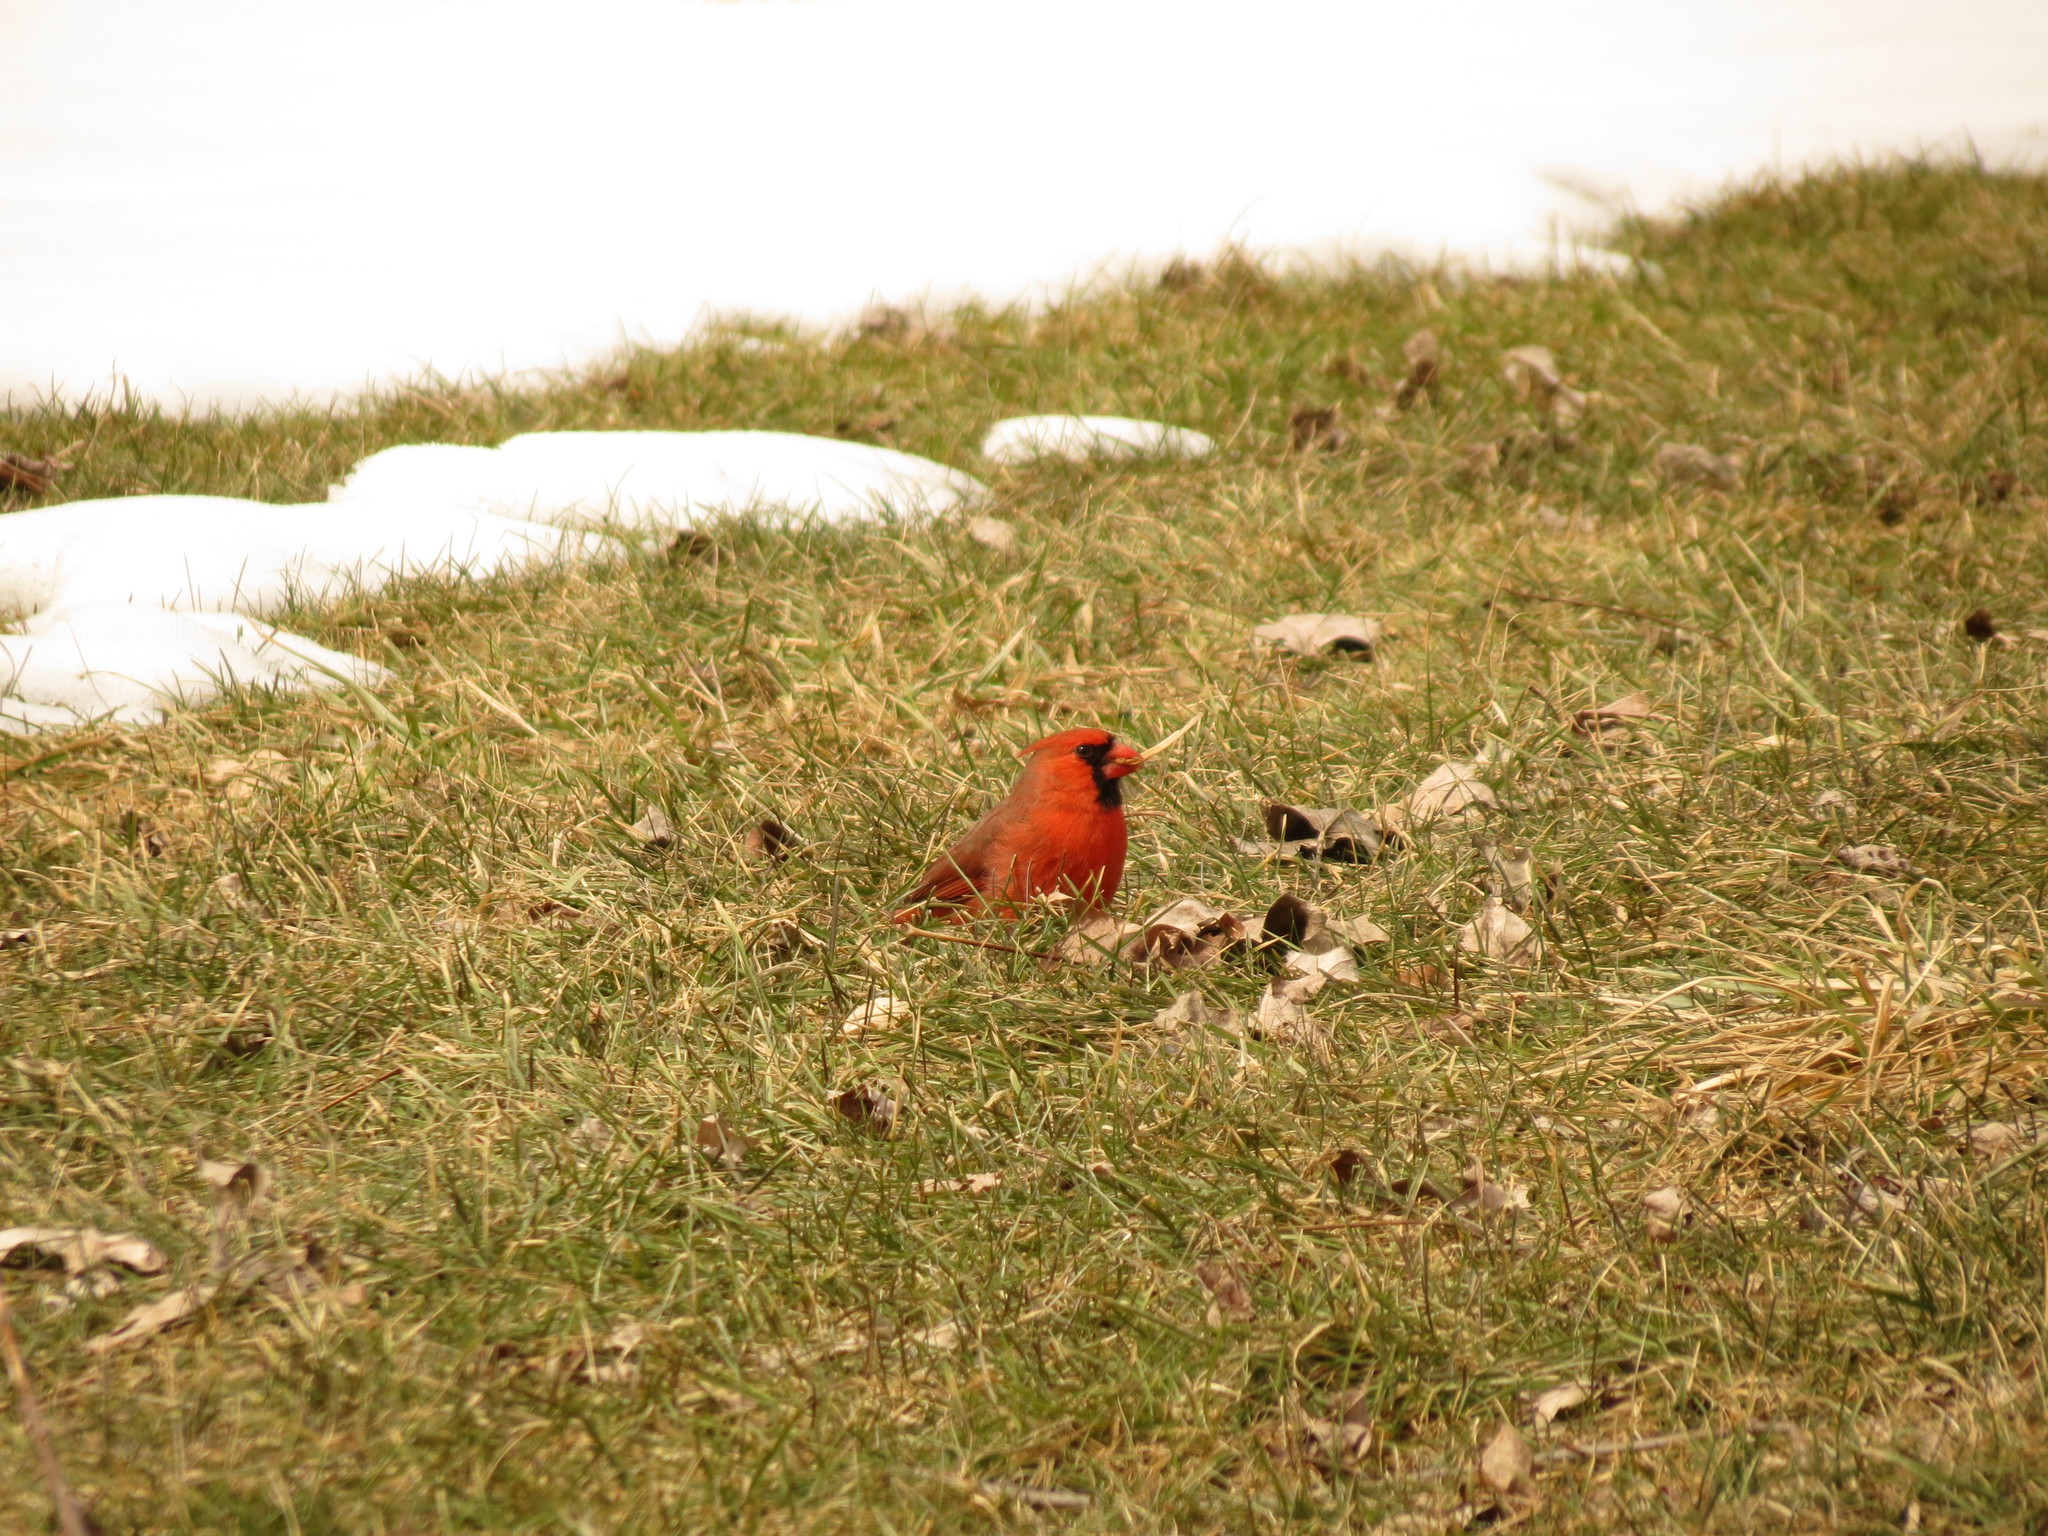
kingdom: Animalia
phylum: Chordata
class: Aves
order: Passeriformes
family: Cardinalidae
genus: Cardinalis
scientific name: Cardinalis cardinalis
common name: Northern cardinal
